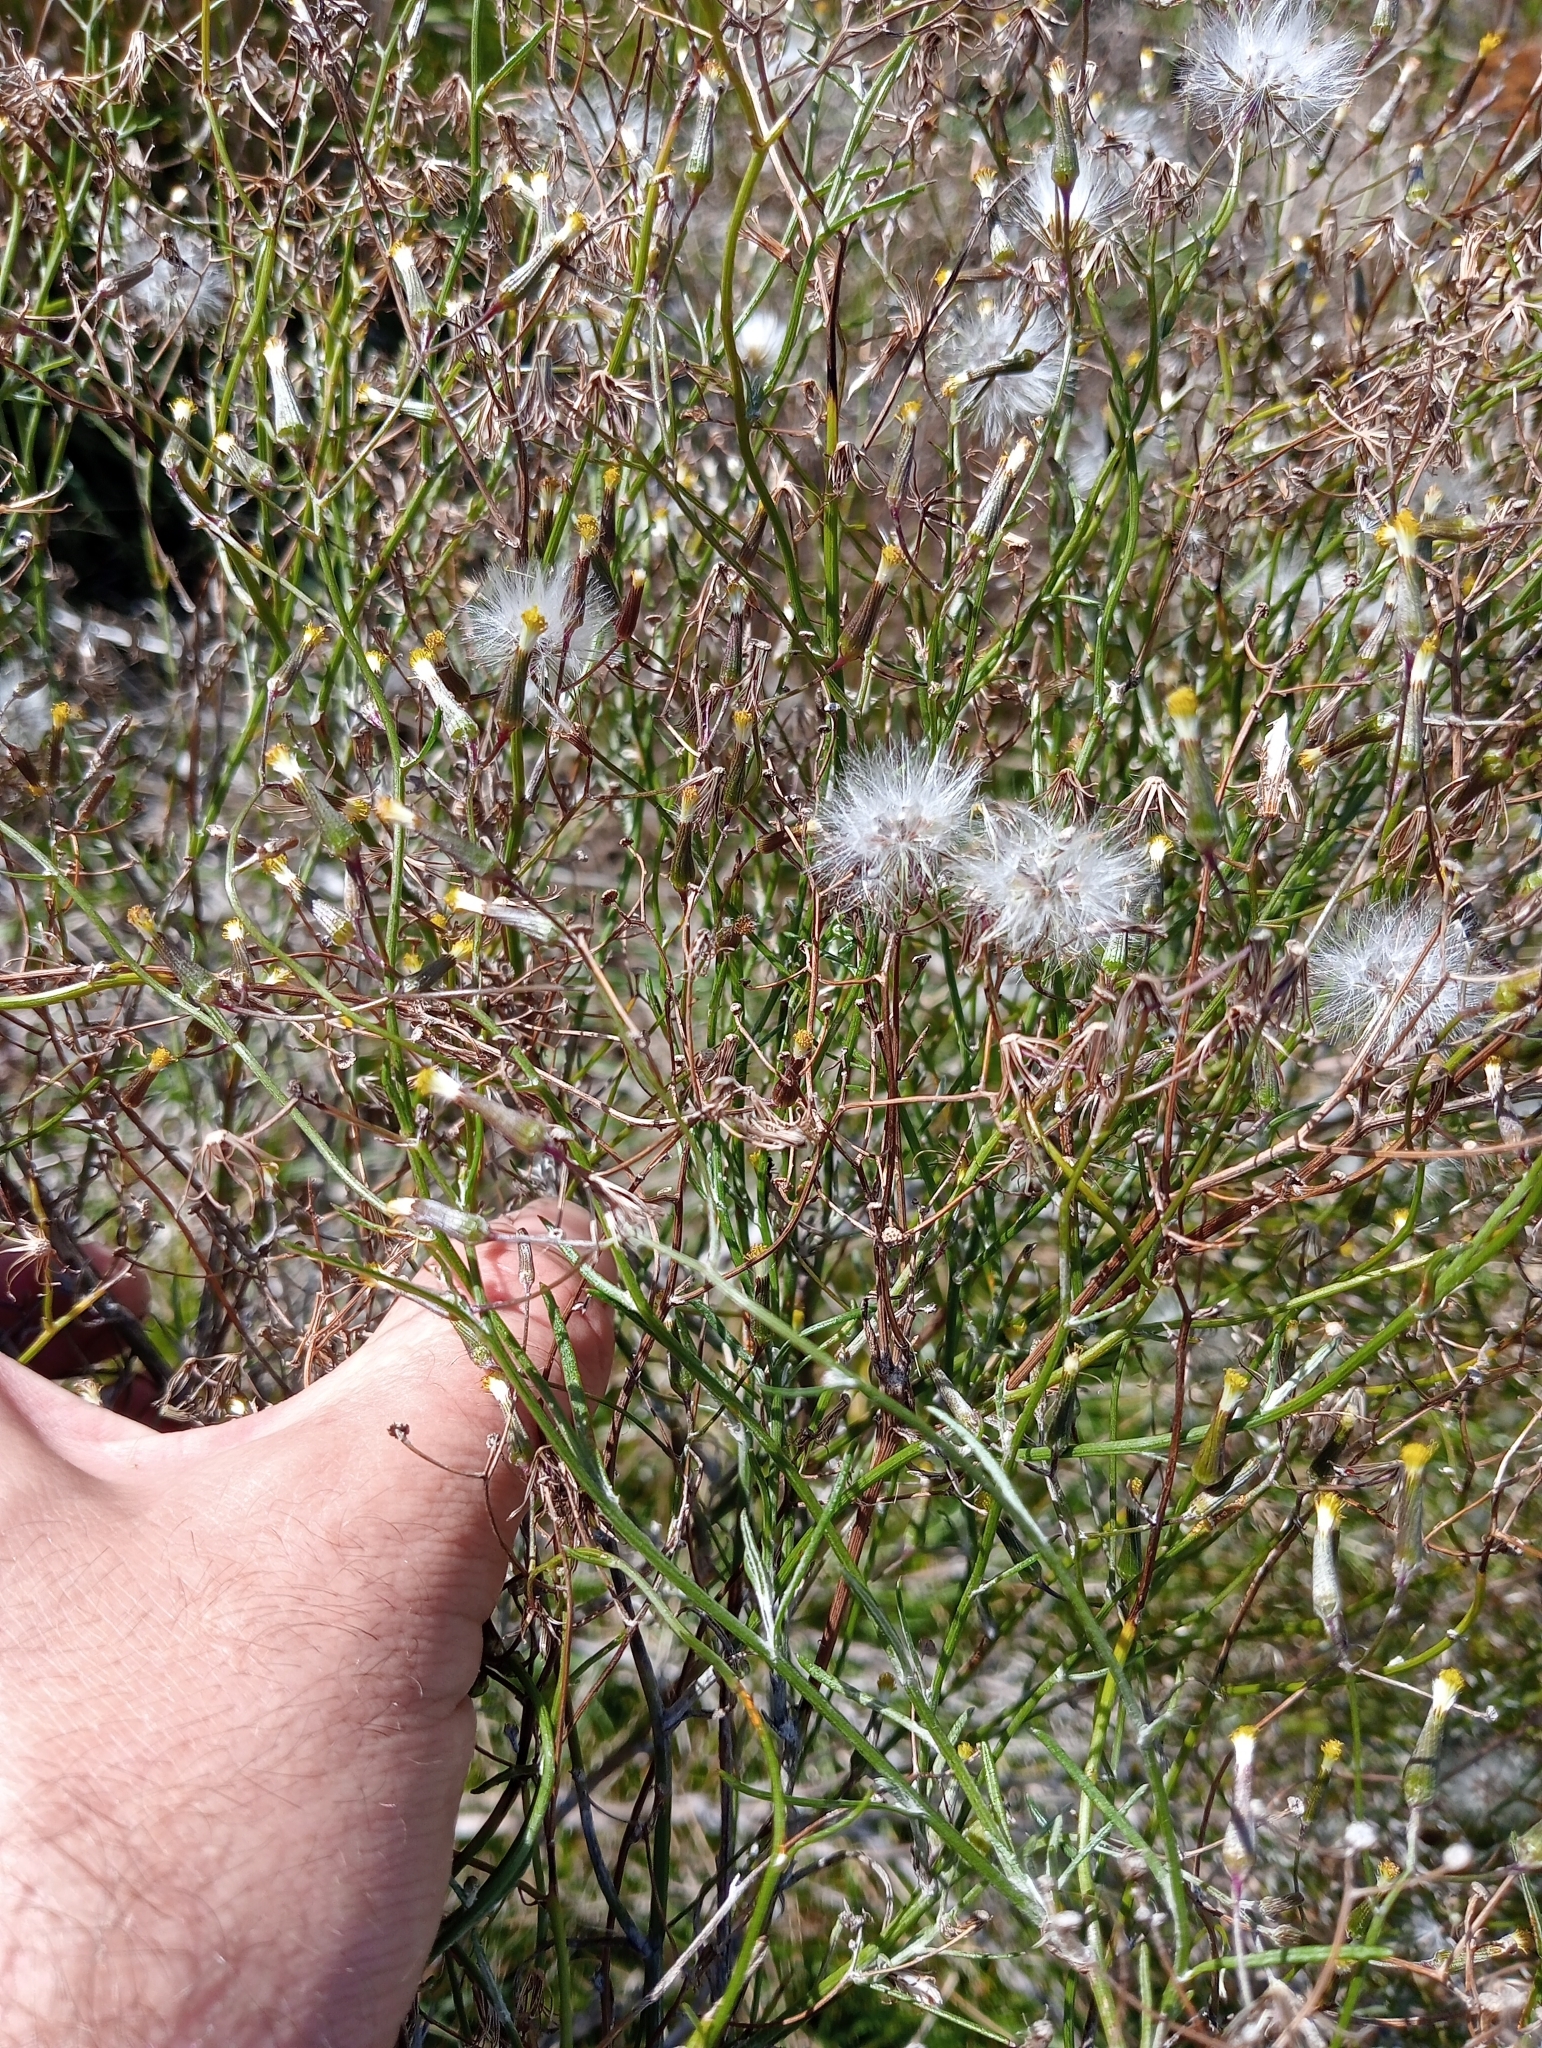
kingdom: Plantae
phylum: Tracheophyta
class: Magnoliopsida
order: Asterales
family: Asteraceae
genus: Senecio
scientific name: Senecio quadridentatus
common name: Cotton fireweed
